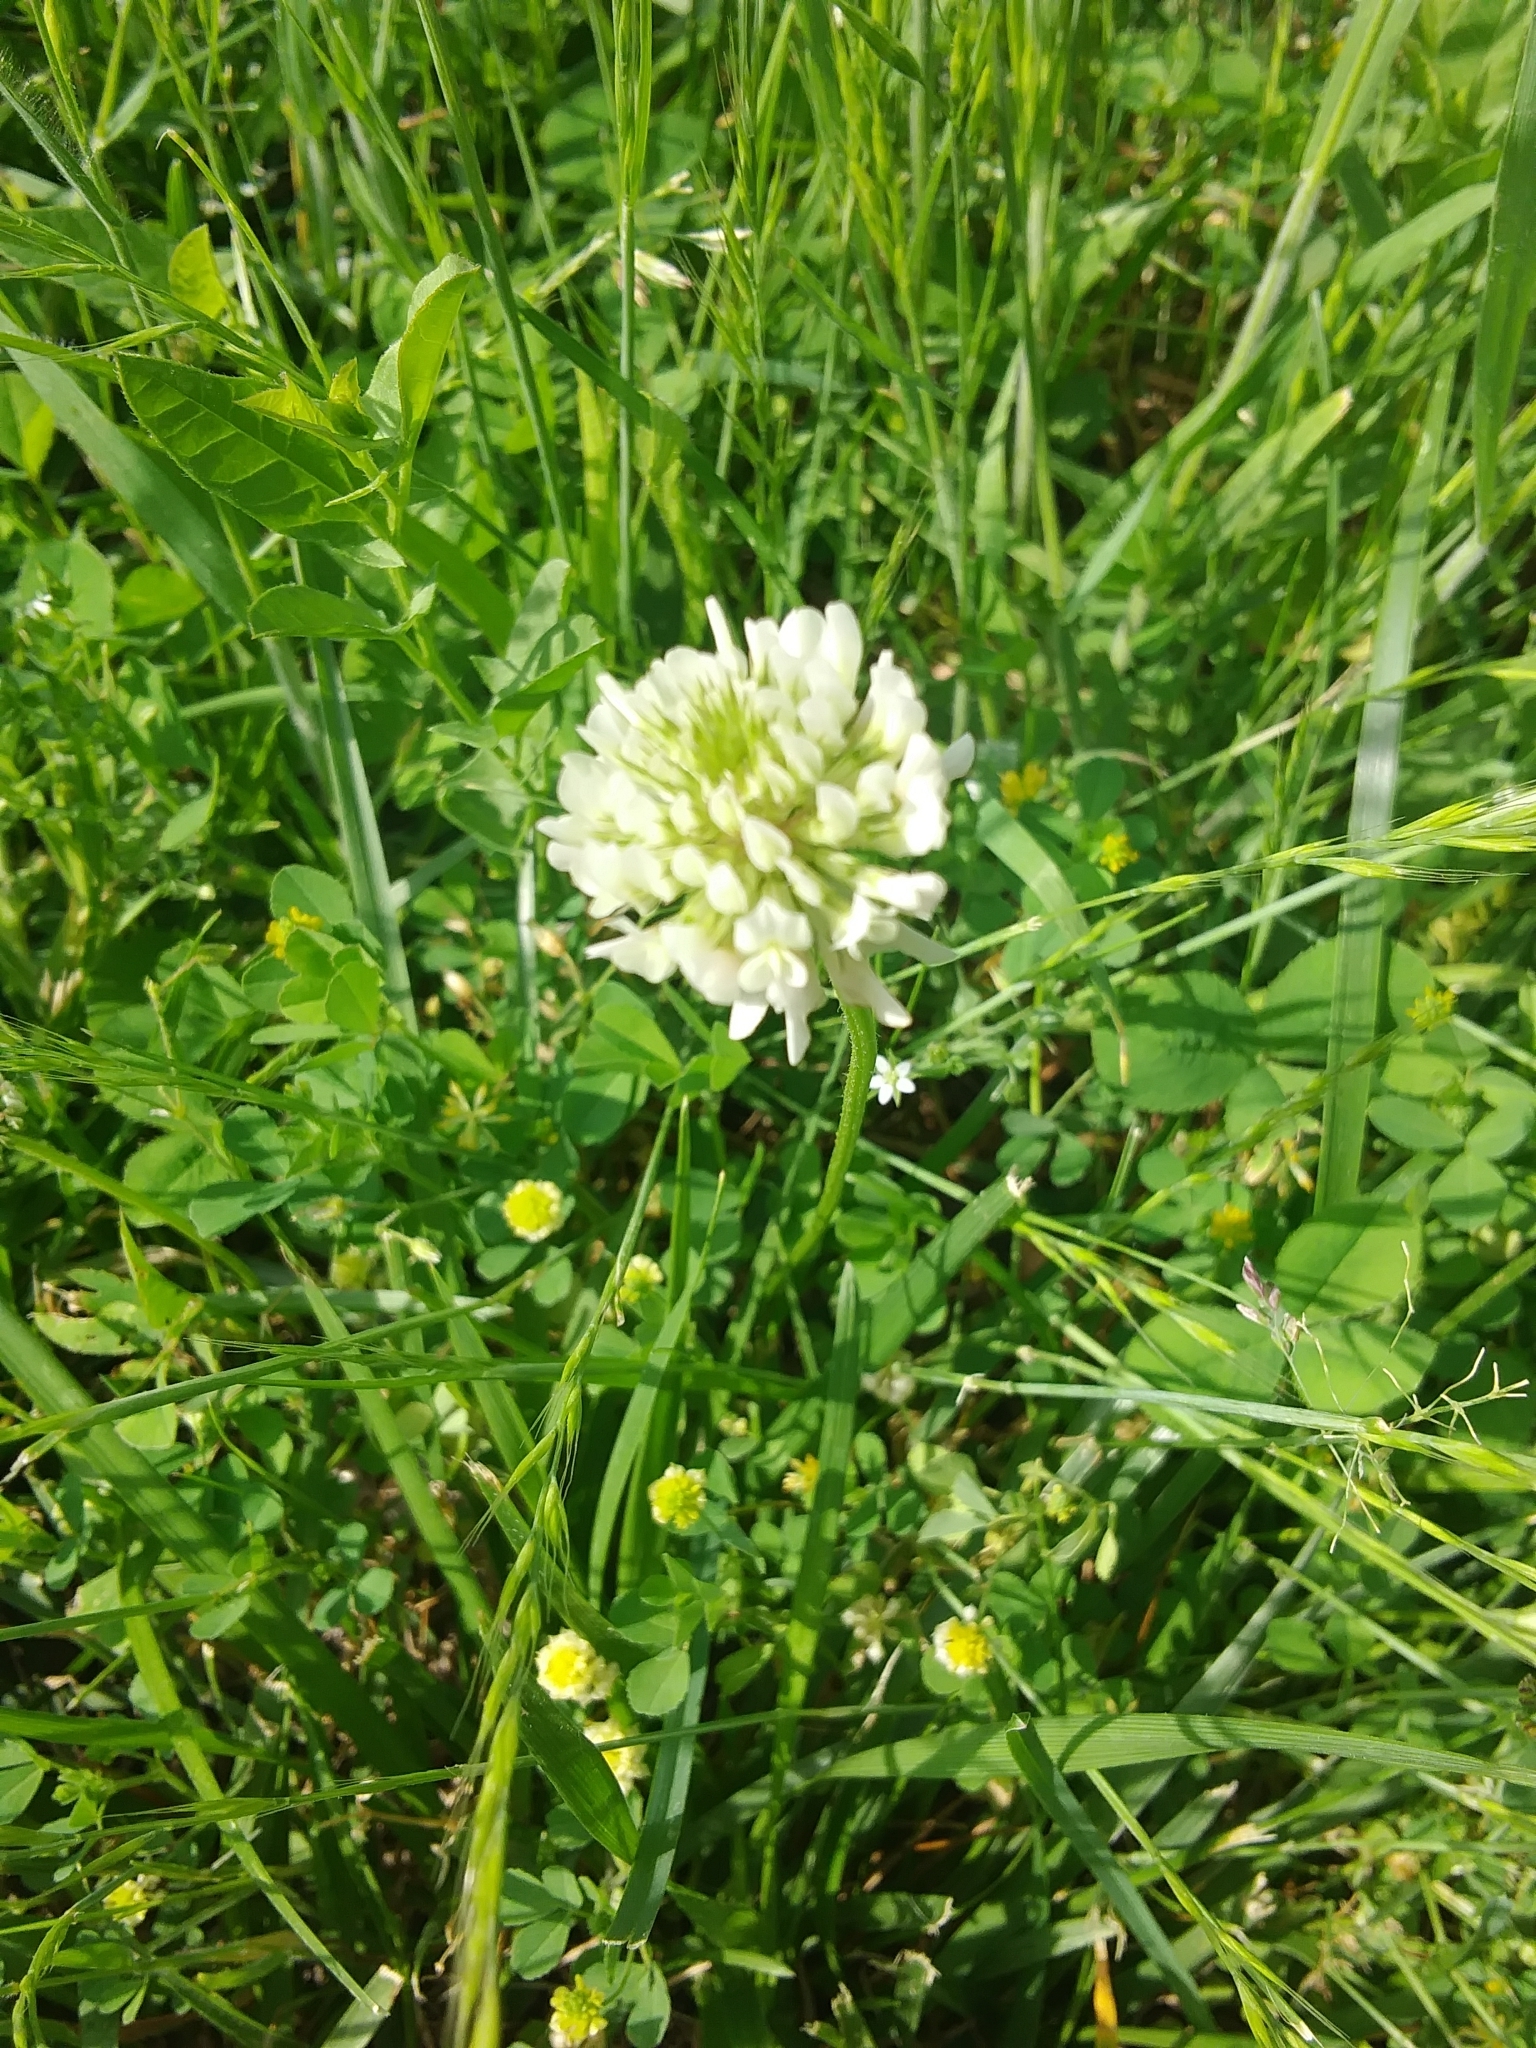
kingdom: Plantae
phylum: Tracheophyta
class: Magnoliopsida
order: Fabales
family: Fabaceae
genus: Trifolium
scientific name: Trifolium repens
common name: White clover
